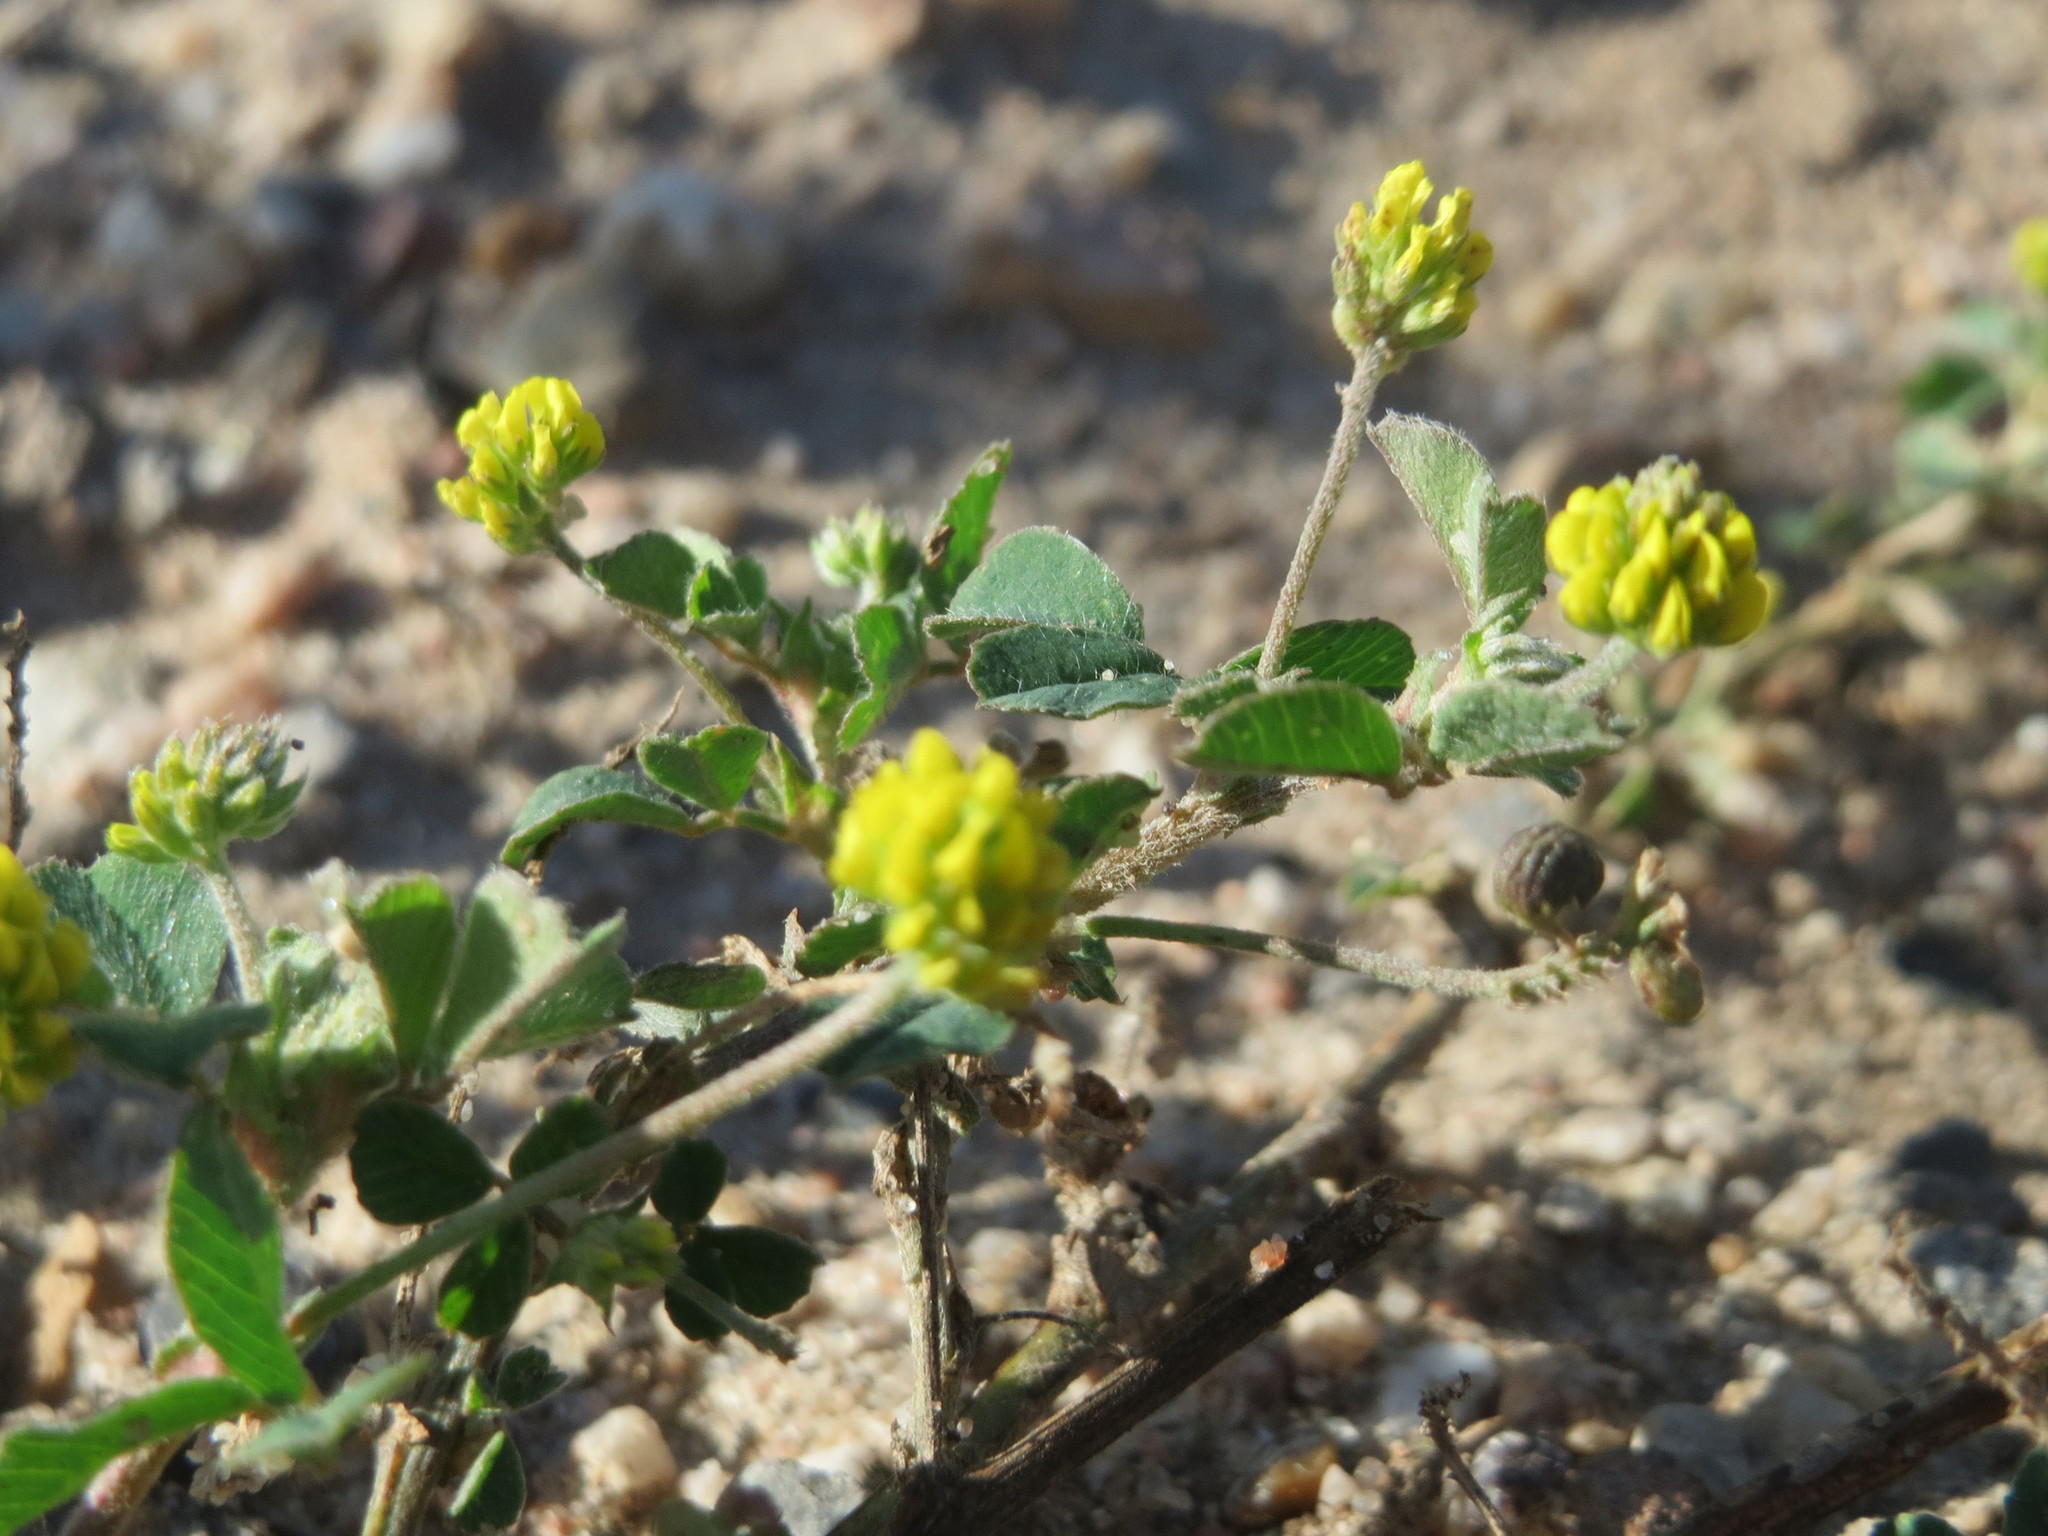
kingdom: Plantae
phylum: Tracheophyta
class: Magnoliopsida
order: Fabales
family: Fabaceae
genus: Medicago
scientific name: Medicago lupulina
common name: Black medick
